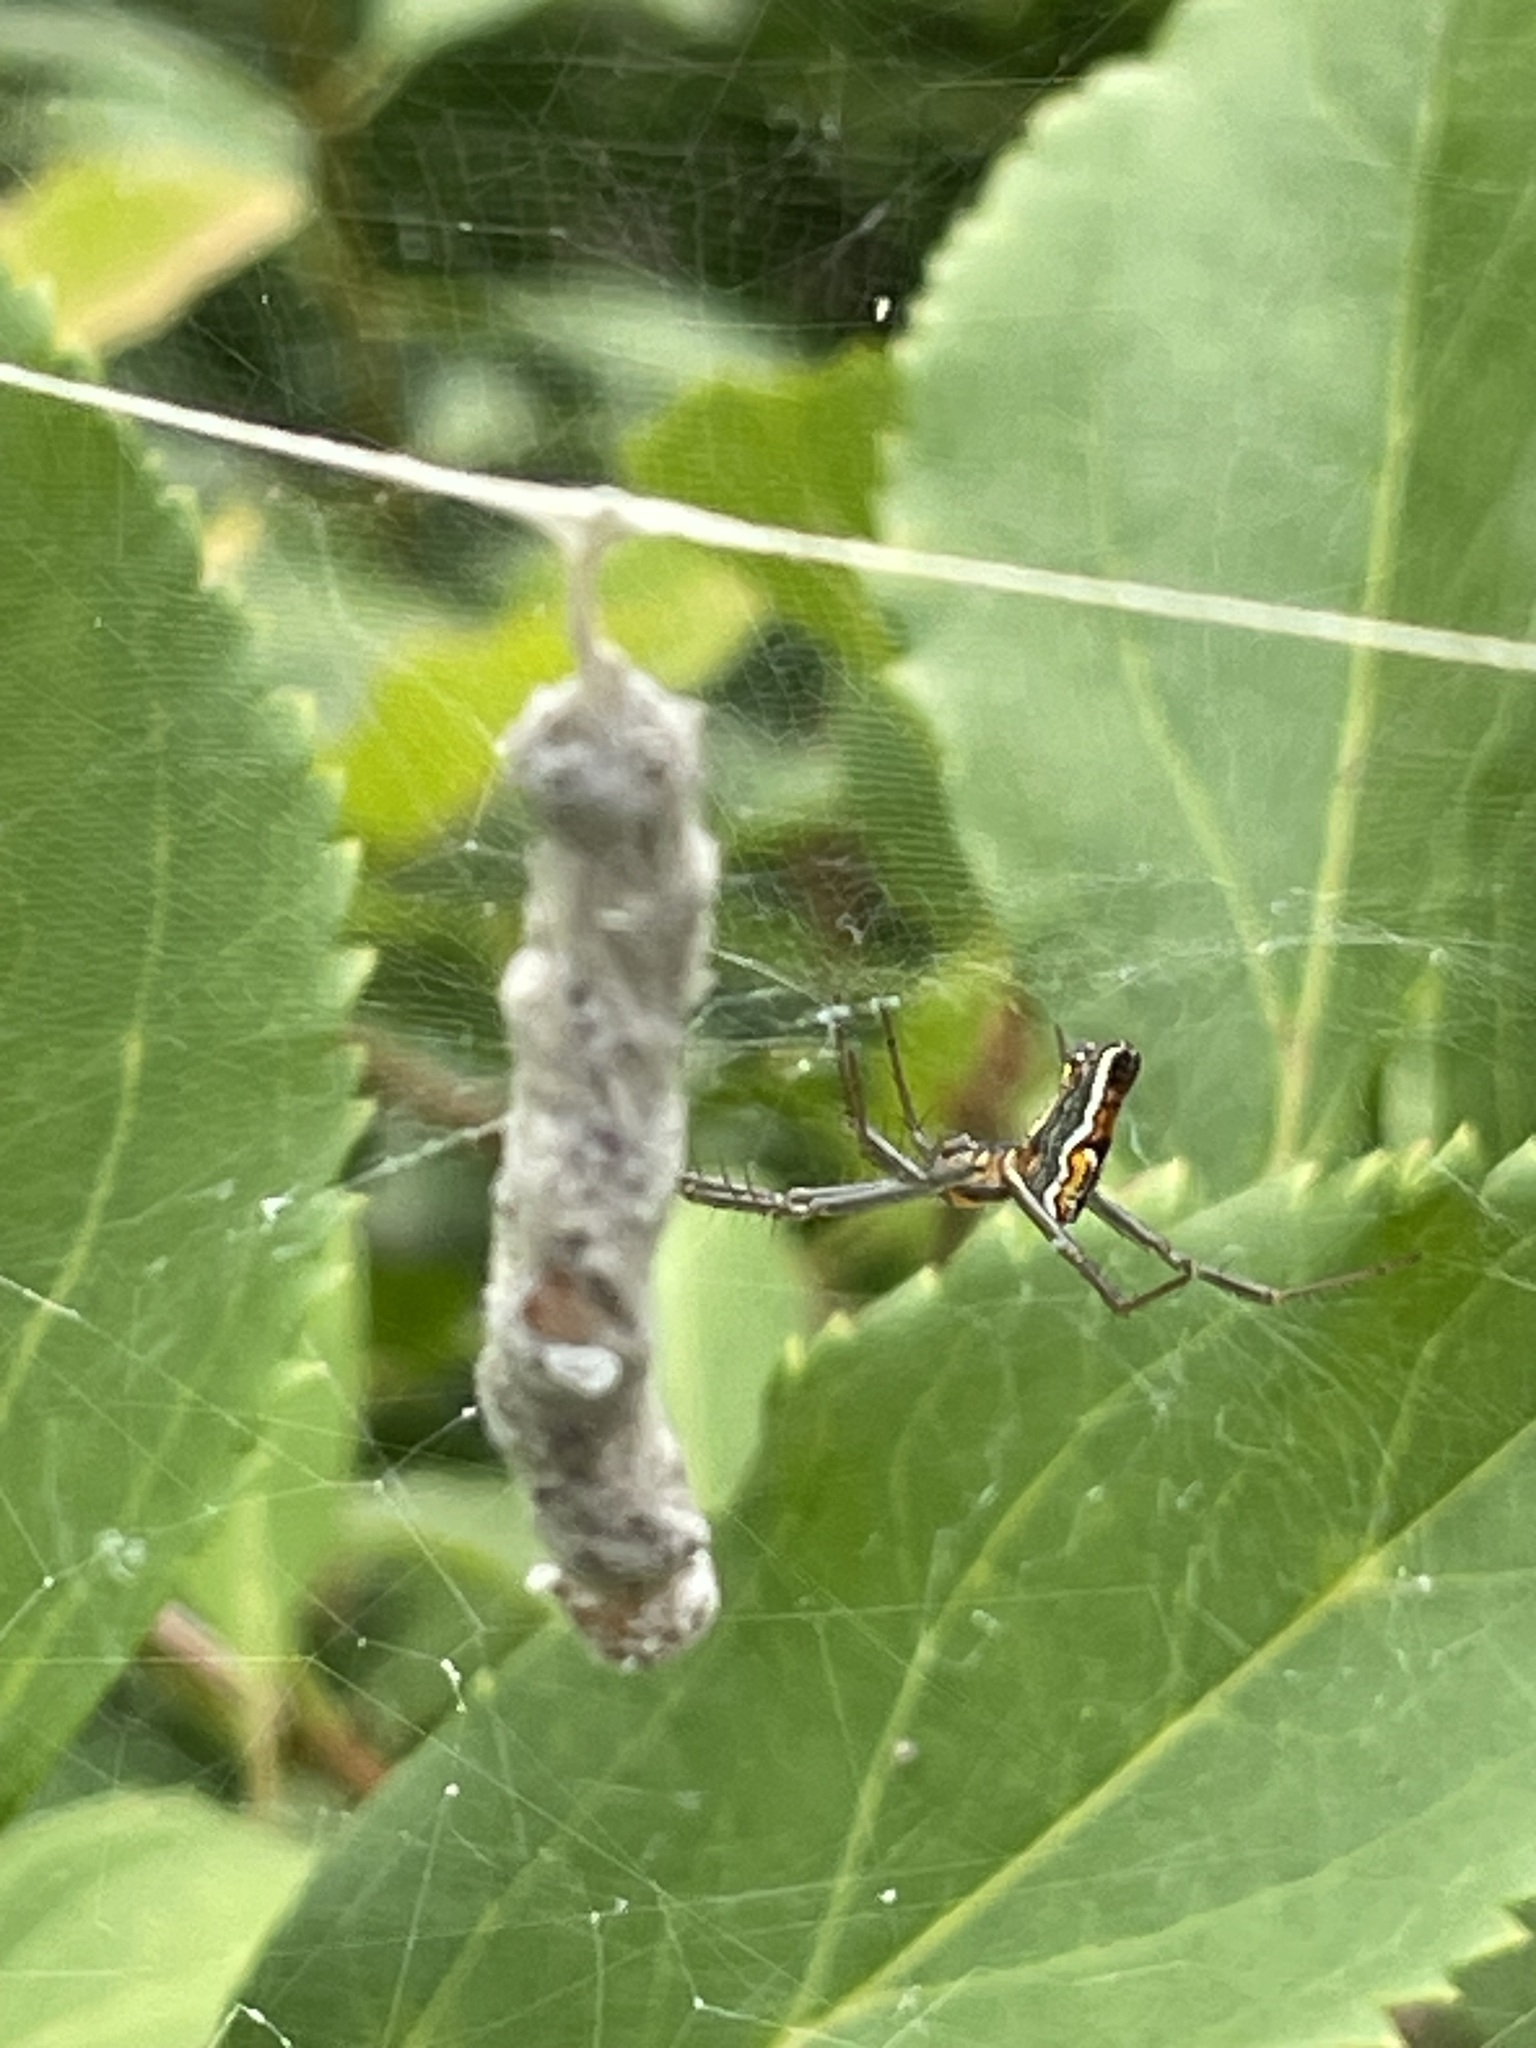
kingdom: Animalia
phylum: Arthropoda
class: Arachnida
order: Araneae
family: Araneidae
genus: Mecynogea
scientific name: Mecynogea lemniscata
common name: Orb weavers
